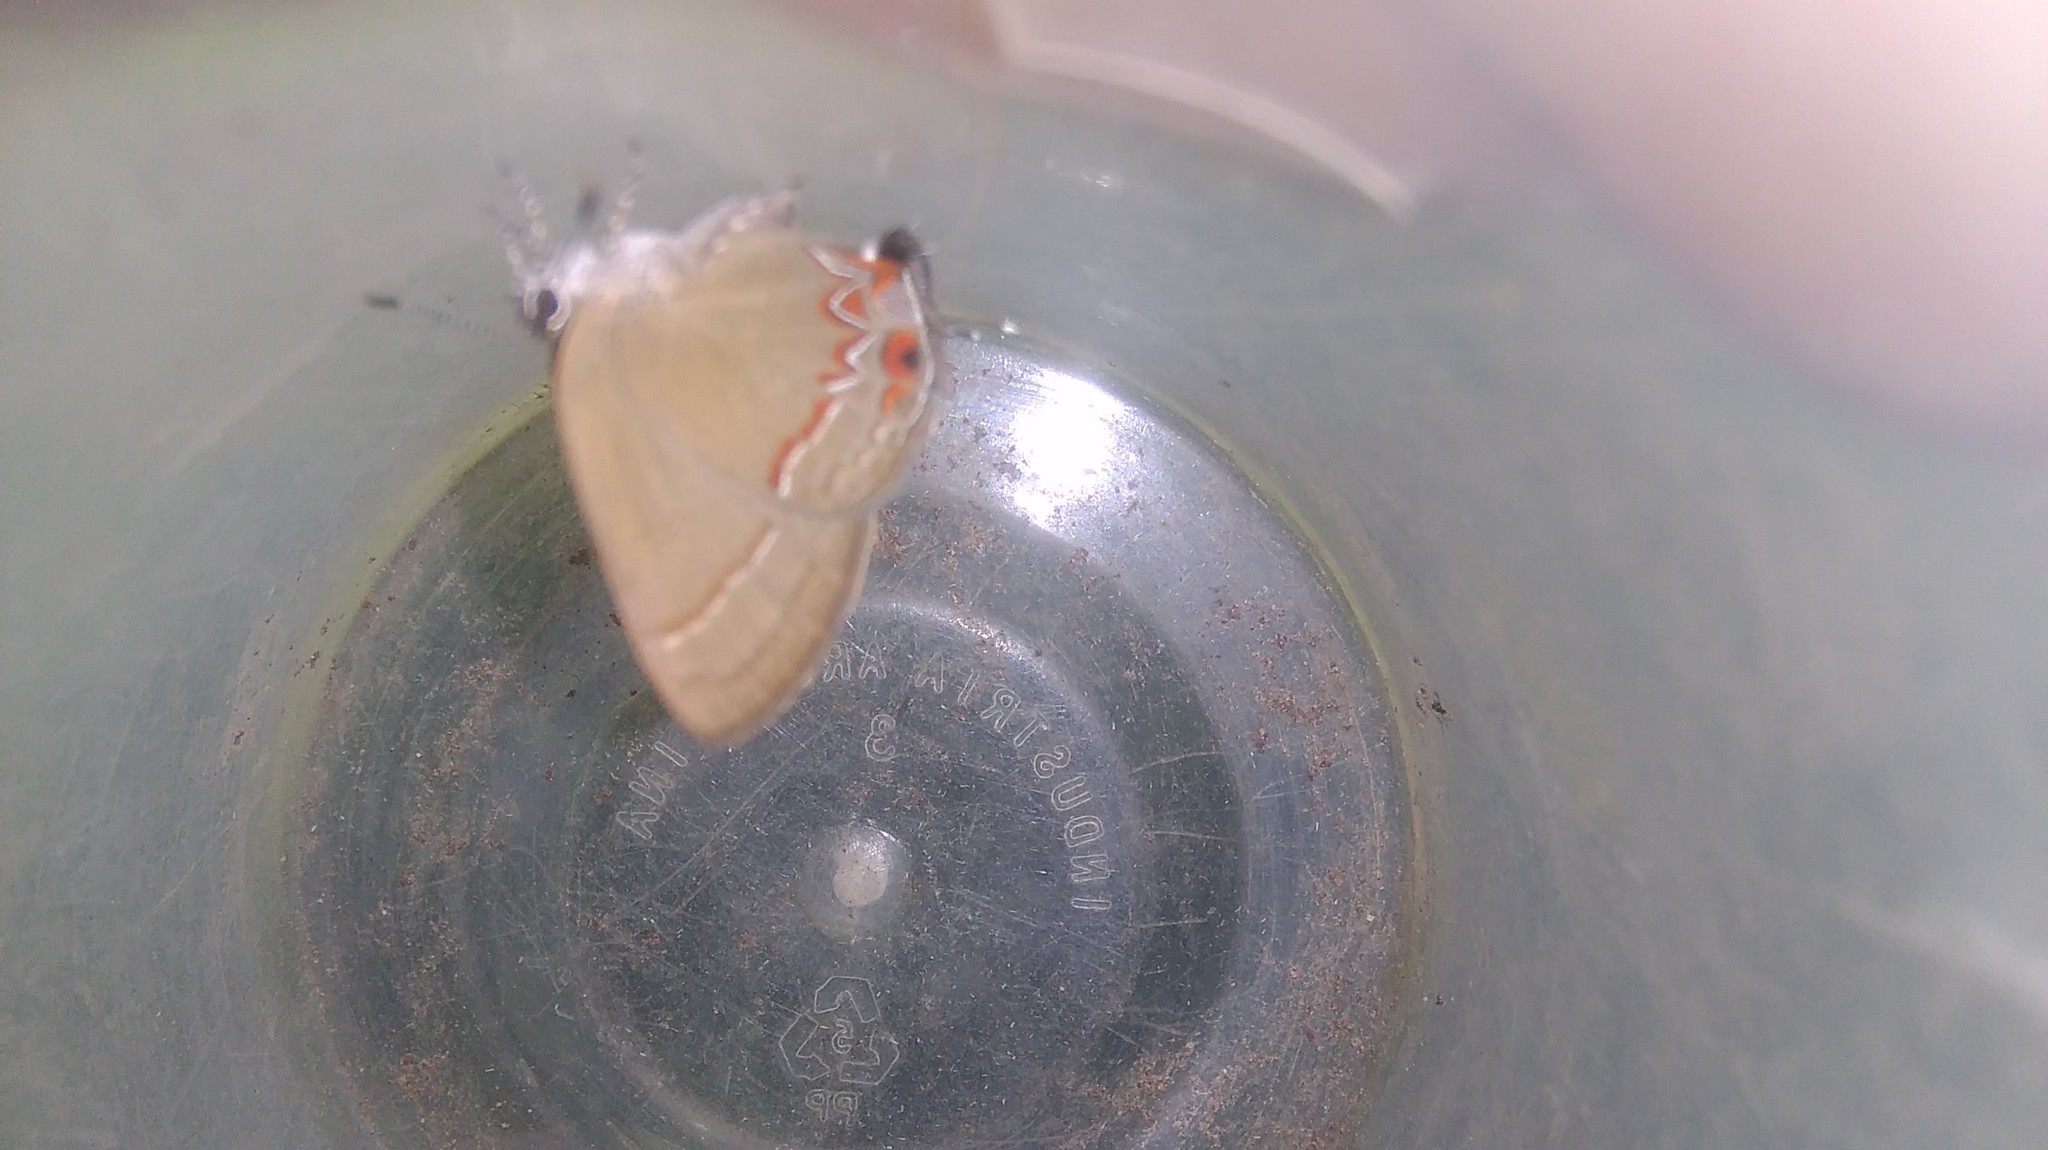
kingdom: Animalia
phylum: Arthropoda
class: Insecta
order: Lepidoptera
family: Lycaenidae
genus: Calycopis
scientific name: Calycopis caulonia
